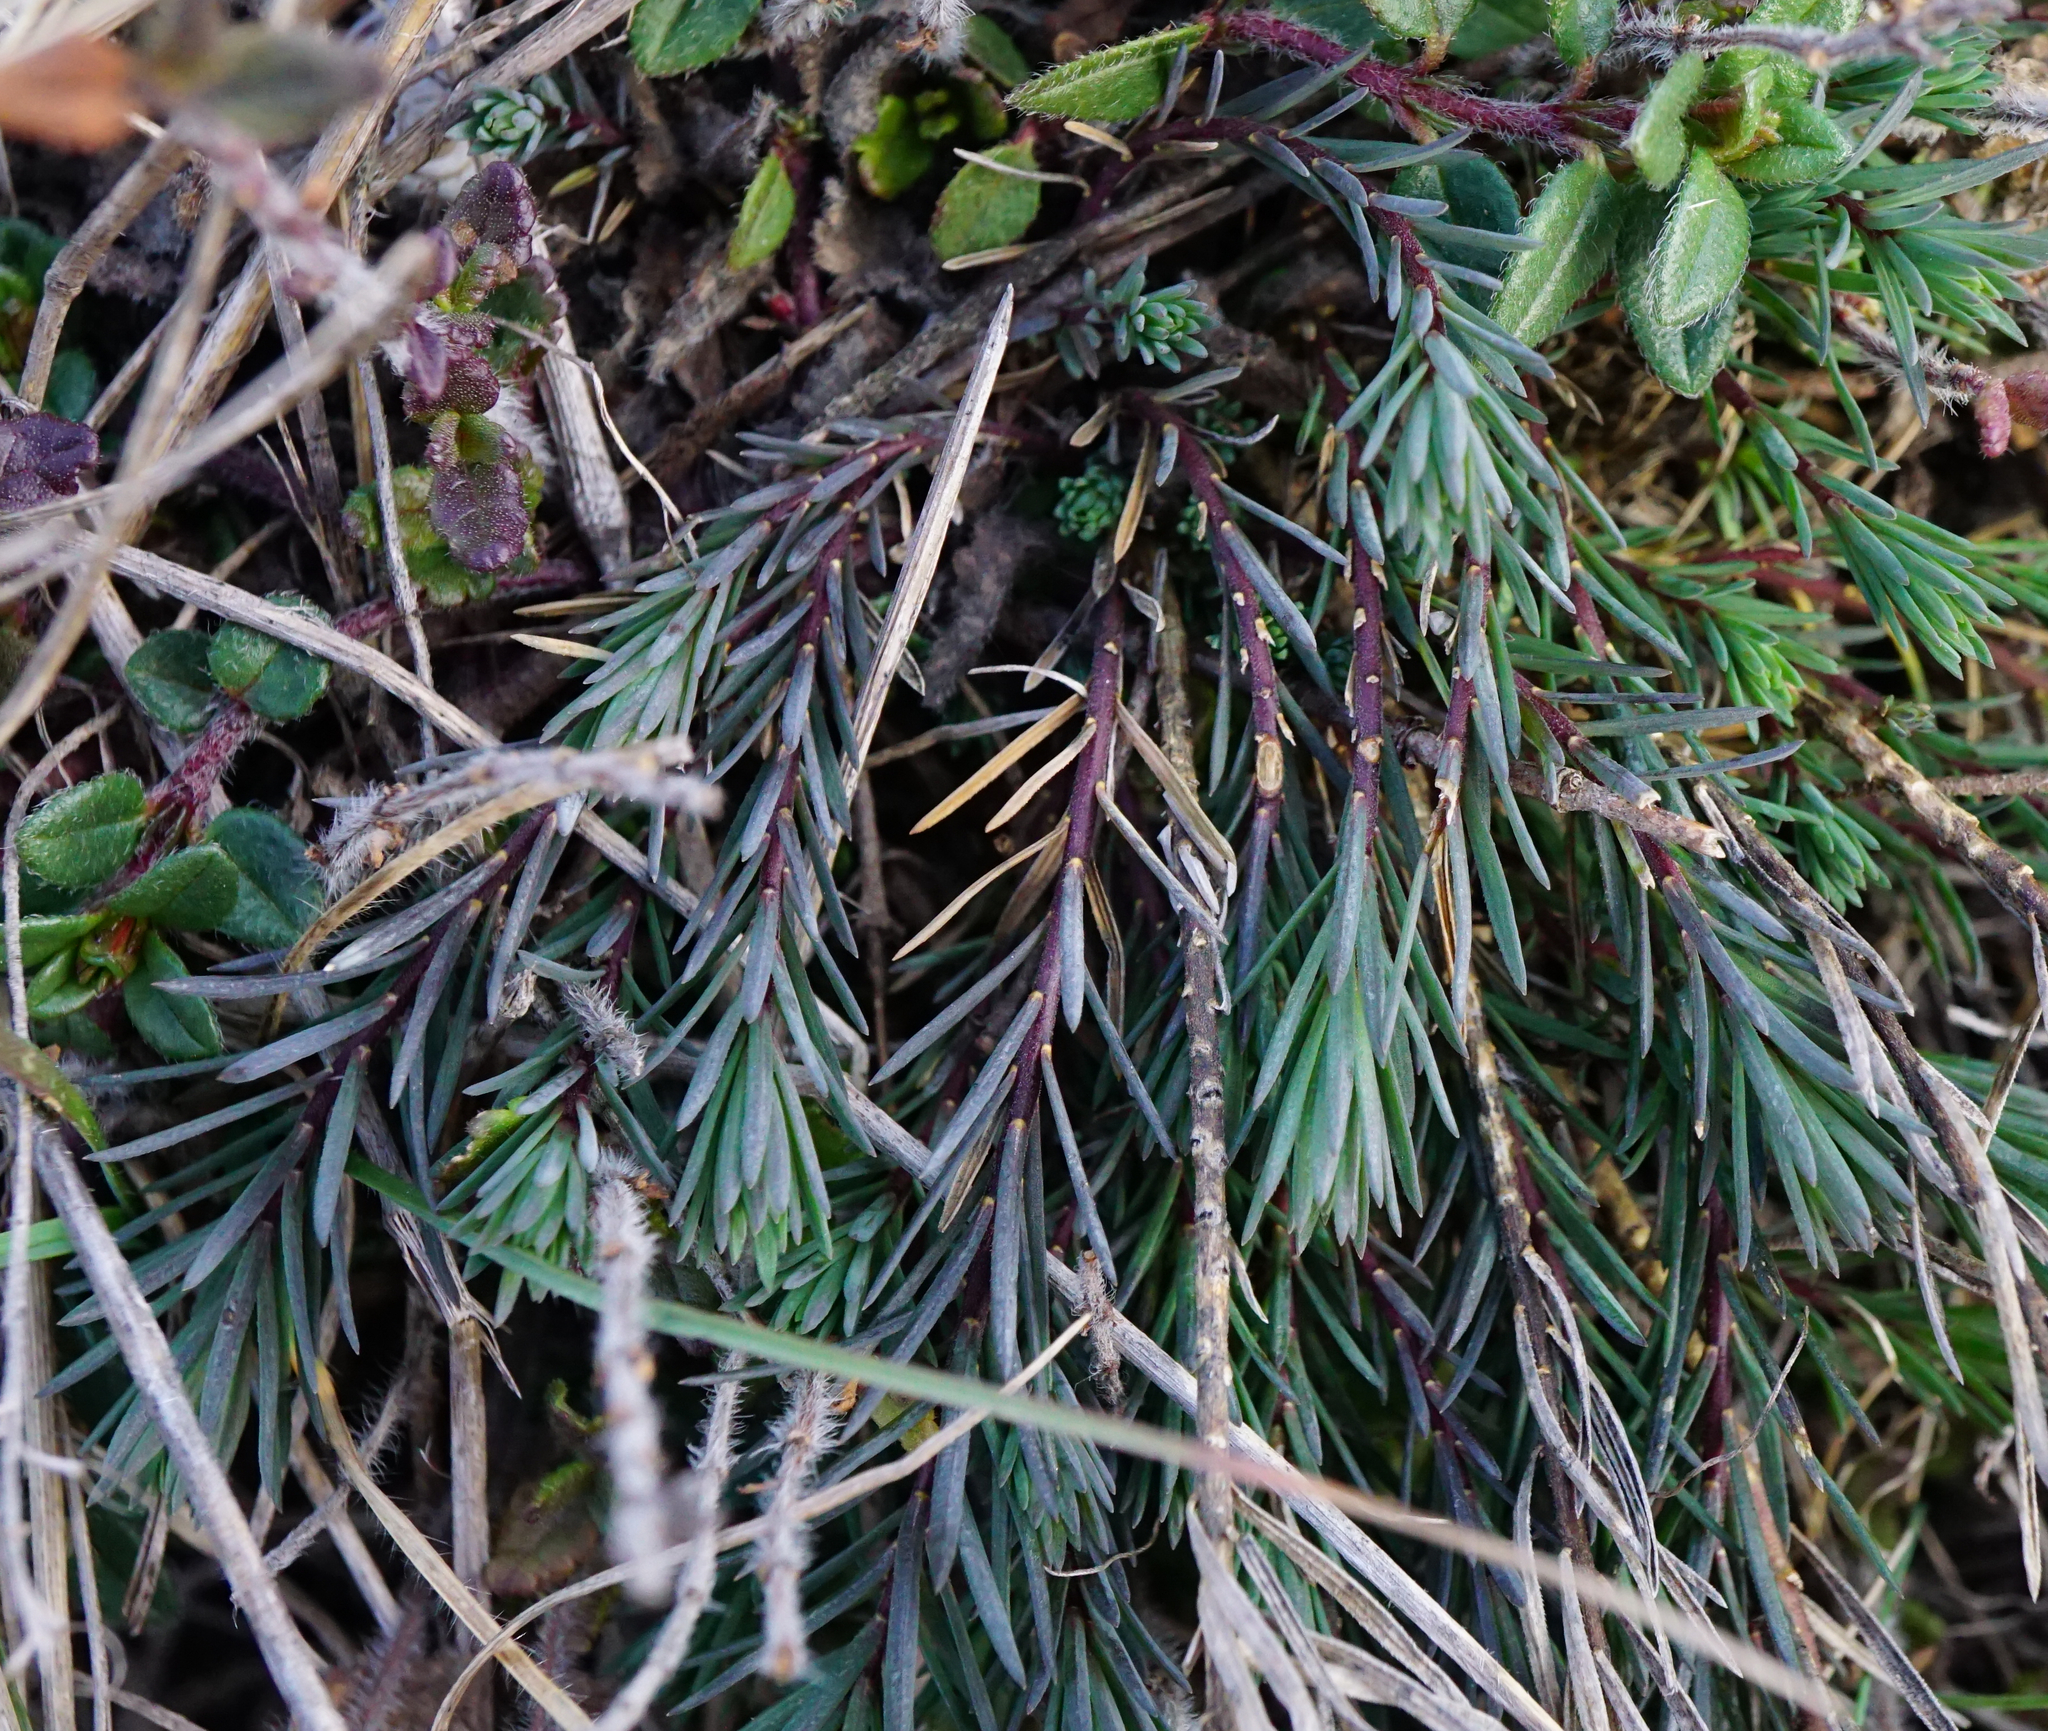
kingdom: Plantae
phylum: Tracheophyta
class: Magnoliopsida
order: Malpighiales
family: Linaceae
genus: Linum
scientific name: Linum tenuifolium
